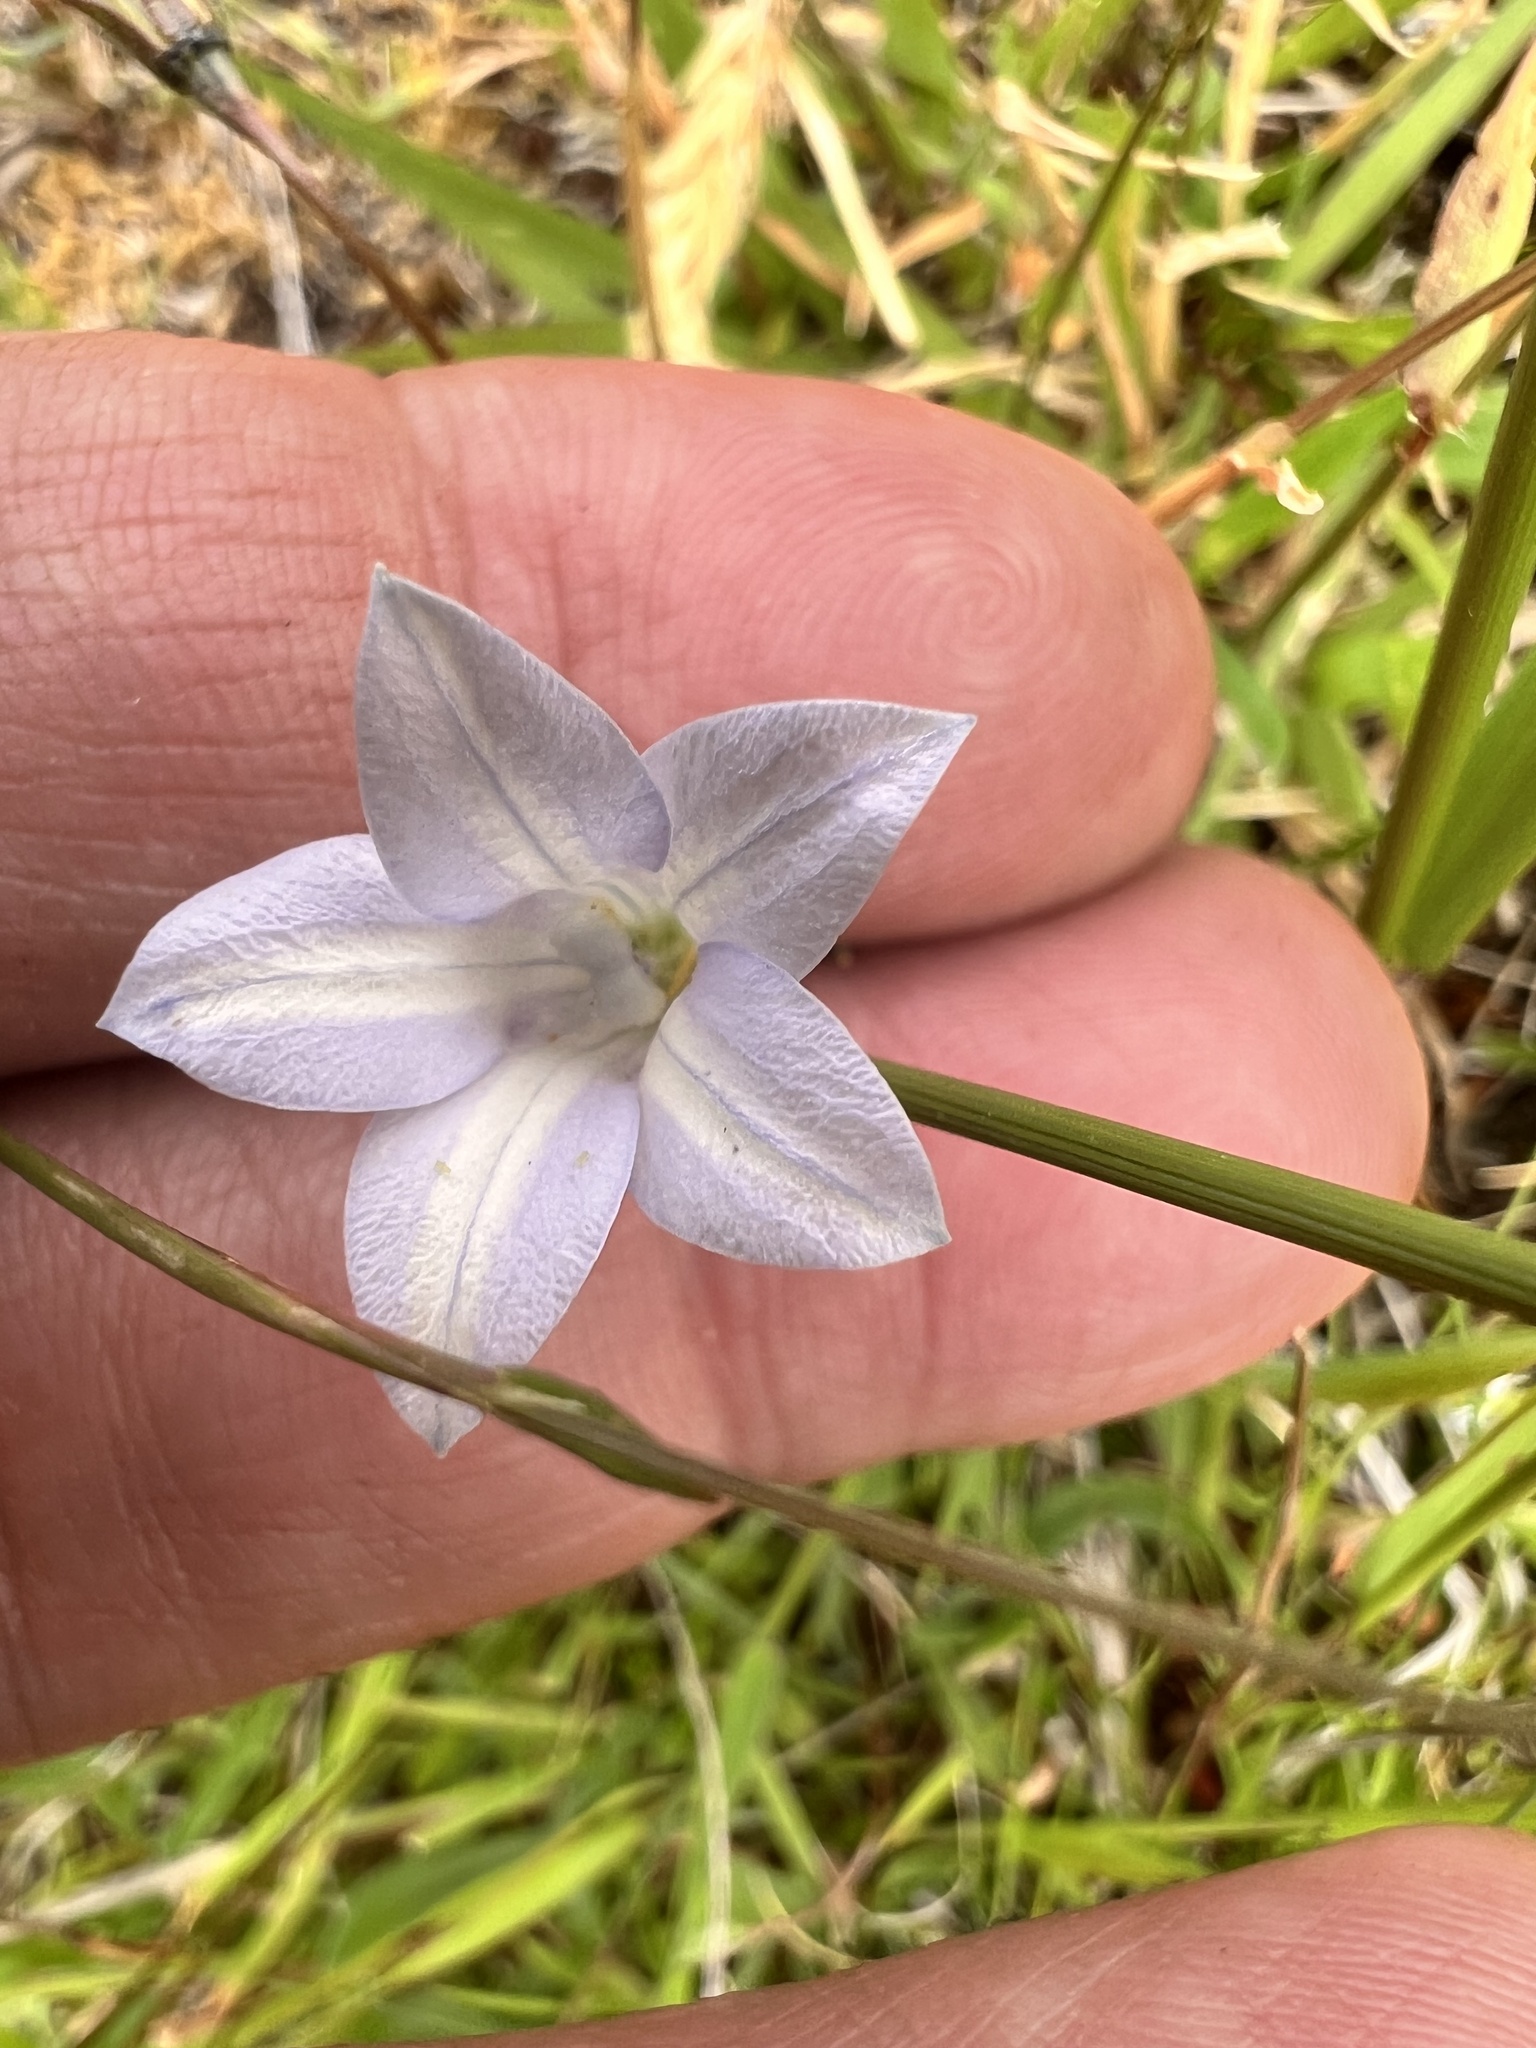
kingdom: Plantae
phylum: Tracheophyta
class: Magnoliopsida
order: Asterales
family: Campanulaceae
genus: Wahlenbergia
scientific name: Wahlenbergia albomarginata
